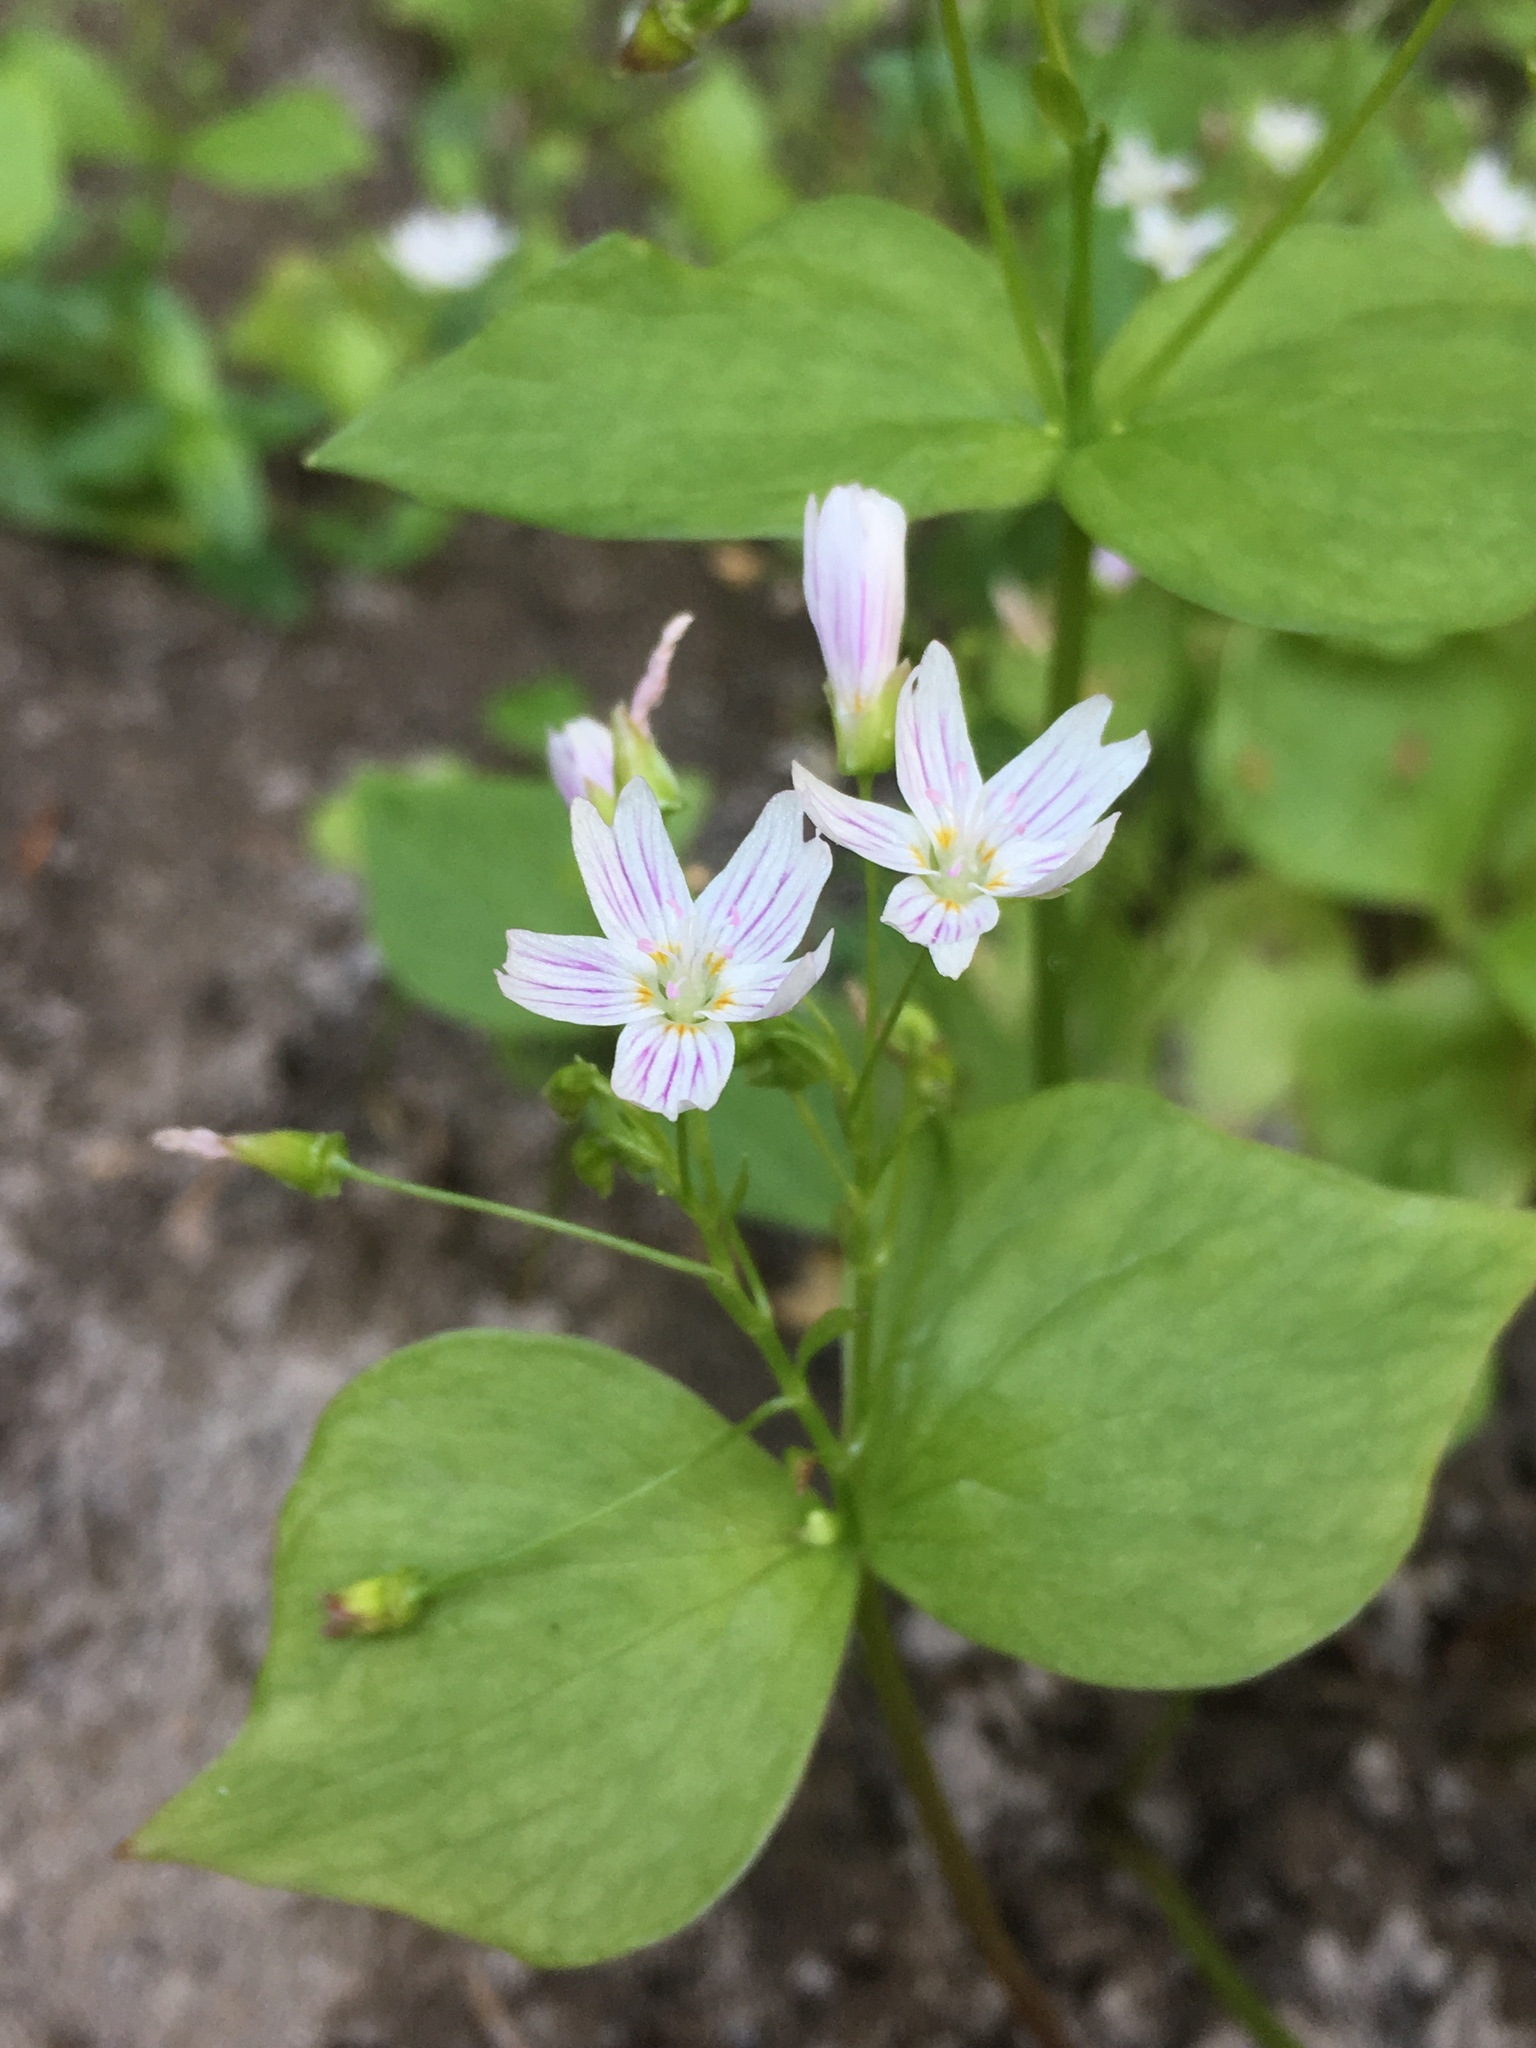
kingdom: Plantae
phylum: Tracheophyta
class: Magnoliopsida
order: Caryophyllales
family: Montiaceae
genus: Claytonia
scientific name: Claytonia sibirica
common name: Pink purslane
